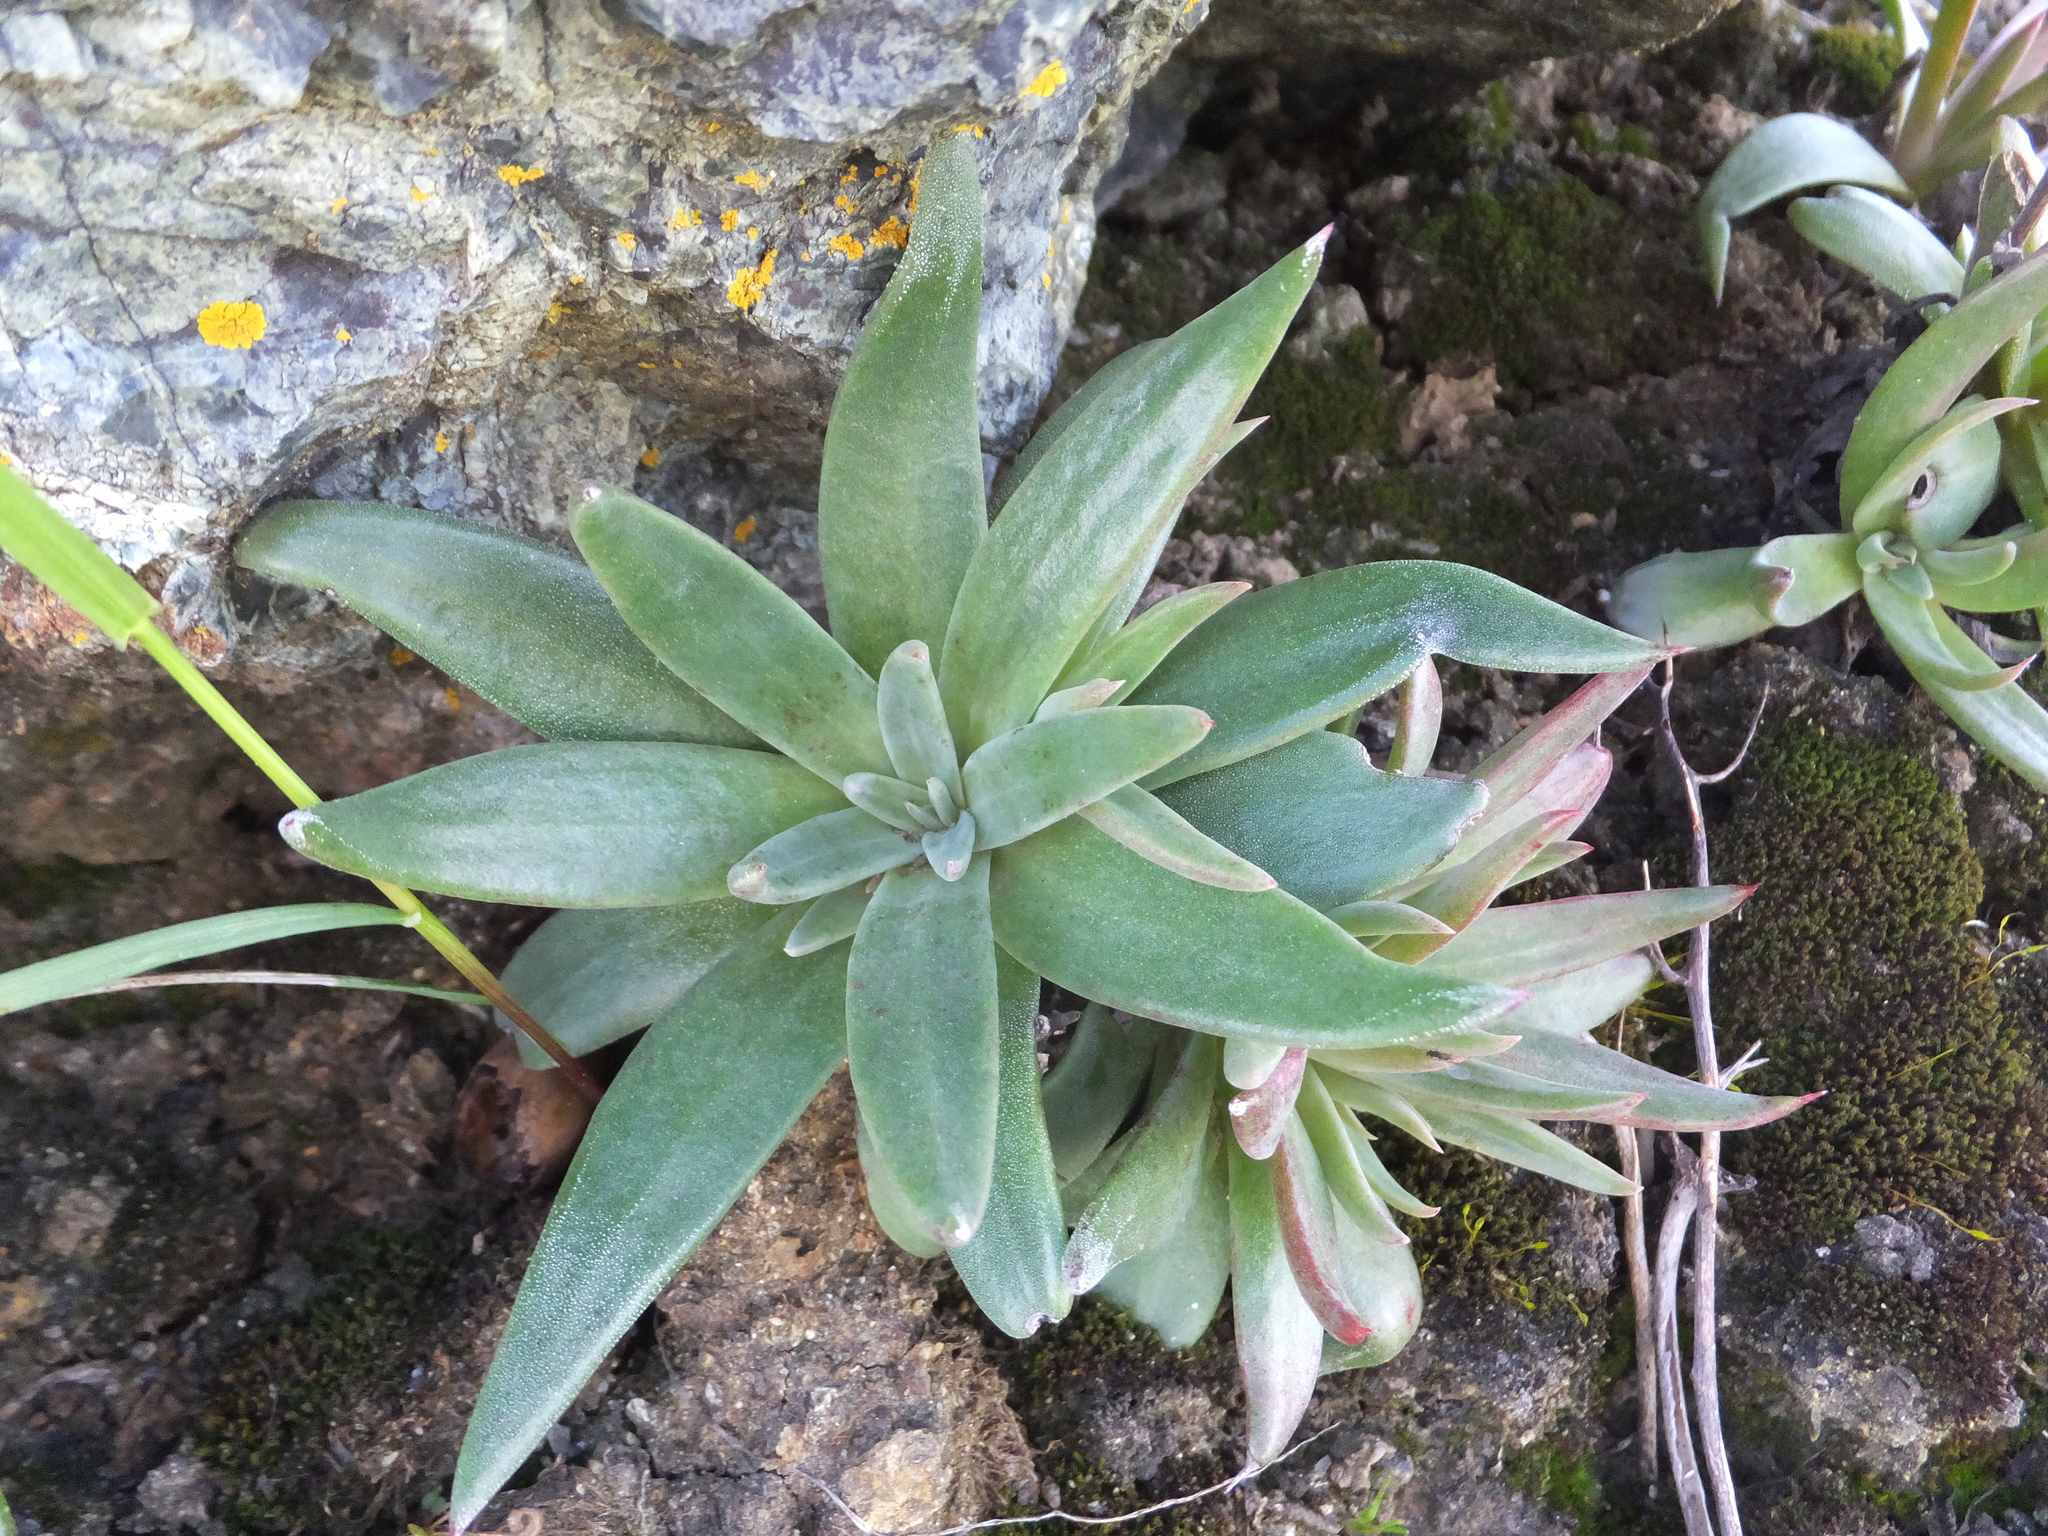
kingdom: Plantae
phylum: Tracheophyta
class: Magnoliopsida
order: Saxifragales
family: Crassulaceae
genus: Dudleya
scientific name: Dudleya abramsii
